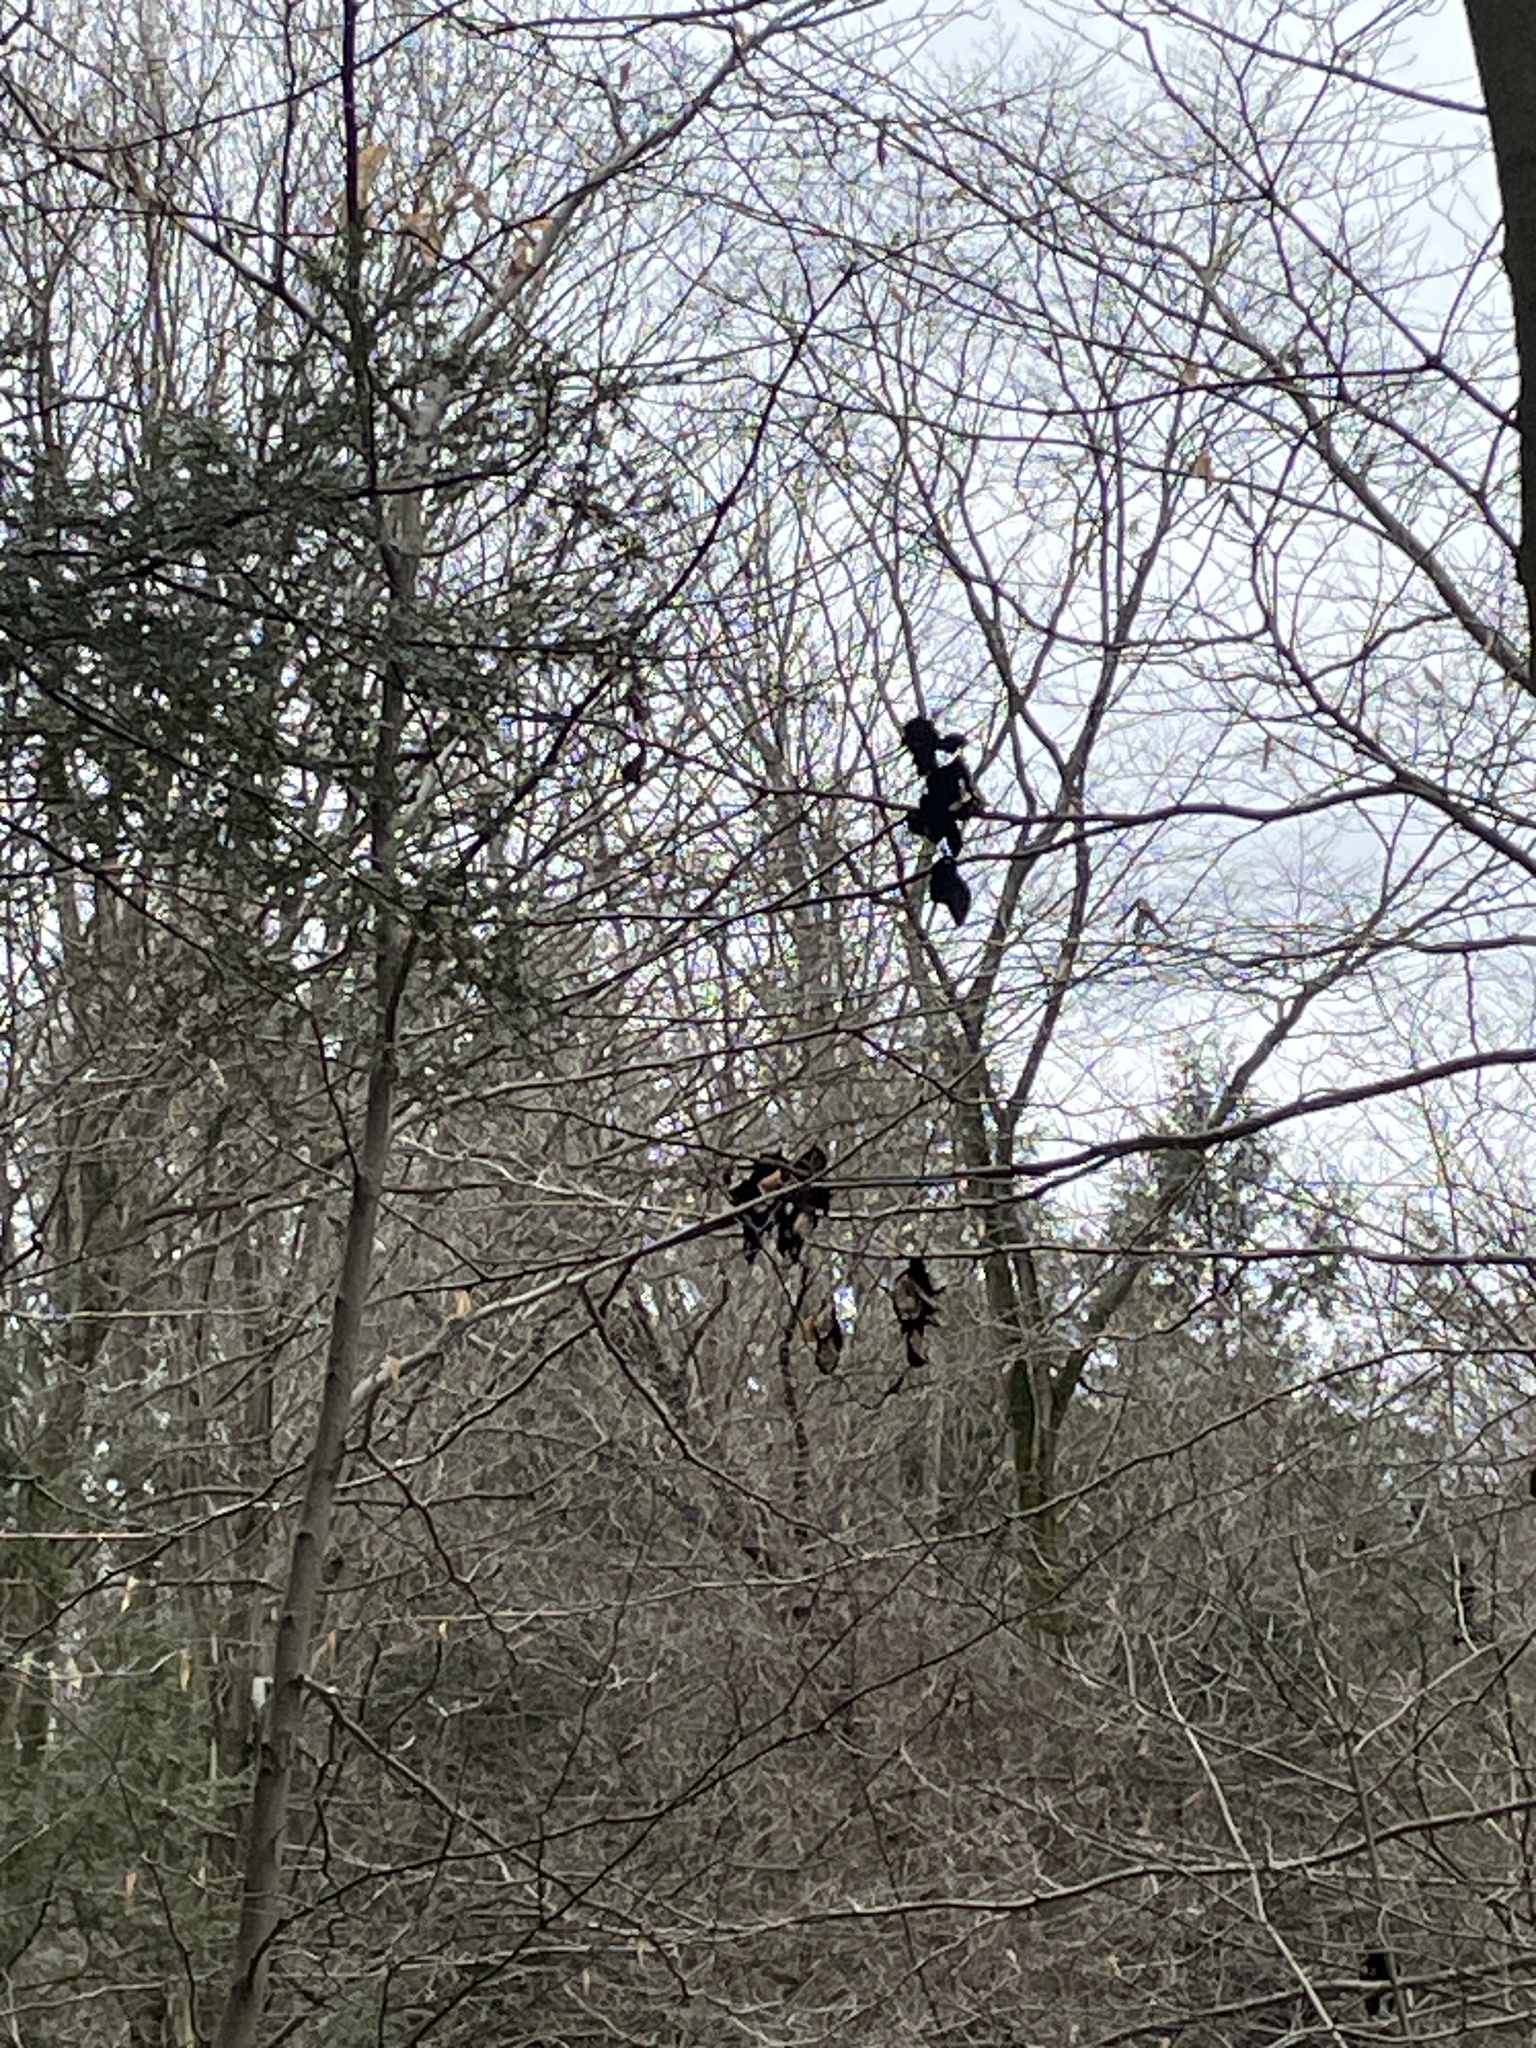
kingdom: Fungi
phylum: Ascomycota
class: Dothideomycetes
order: Capnodiales
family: Capnodiaceae
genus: Scorias
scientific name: Scorias spongiosa
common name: Black sooty mold
